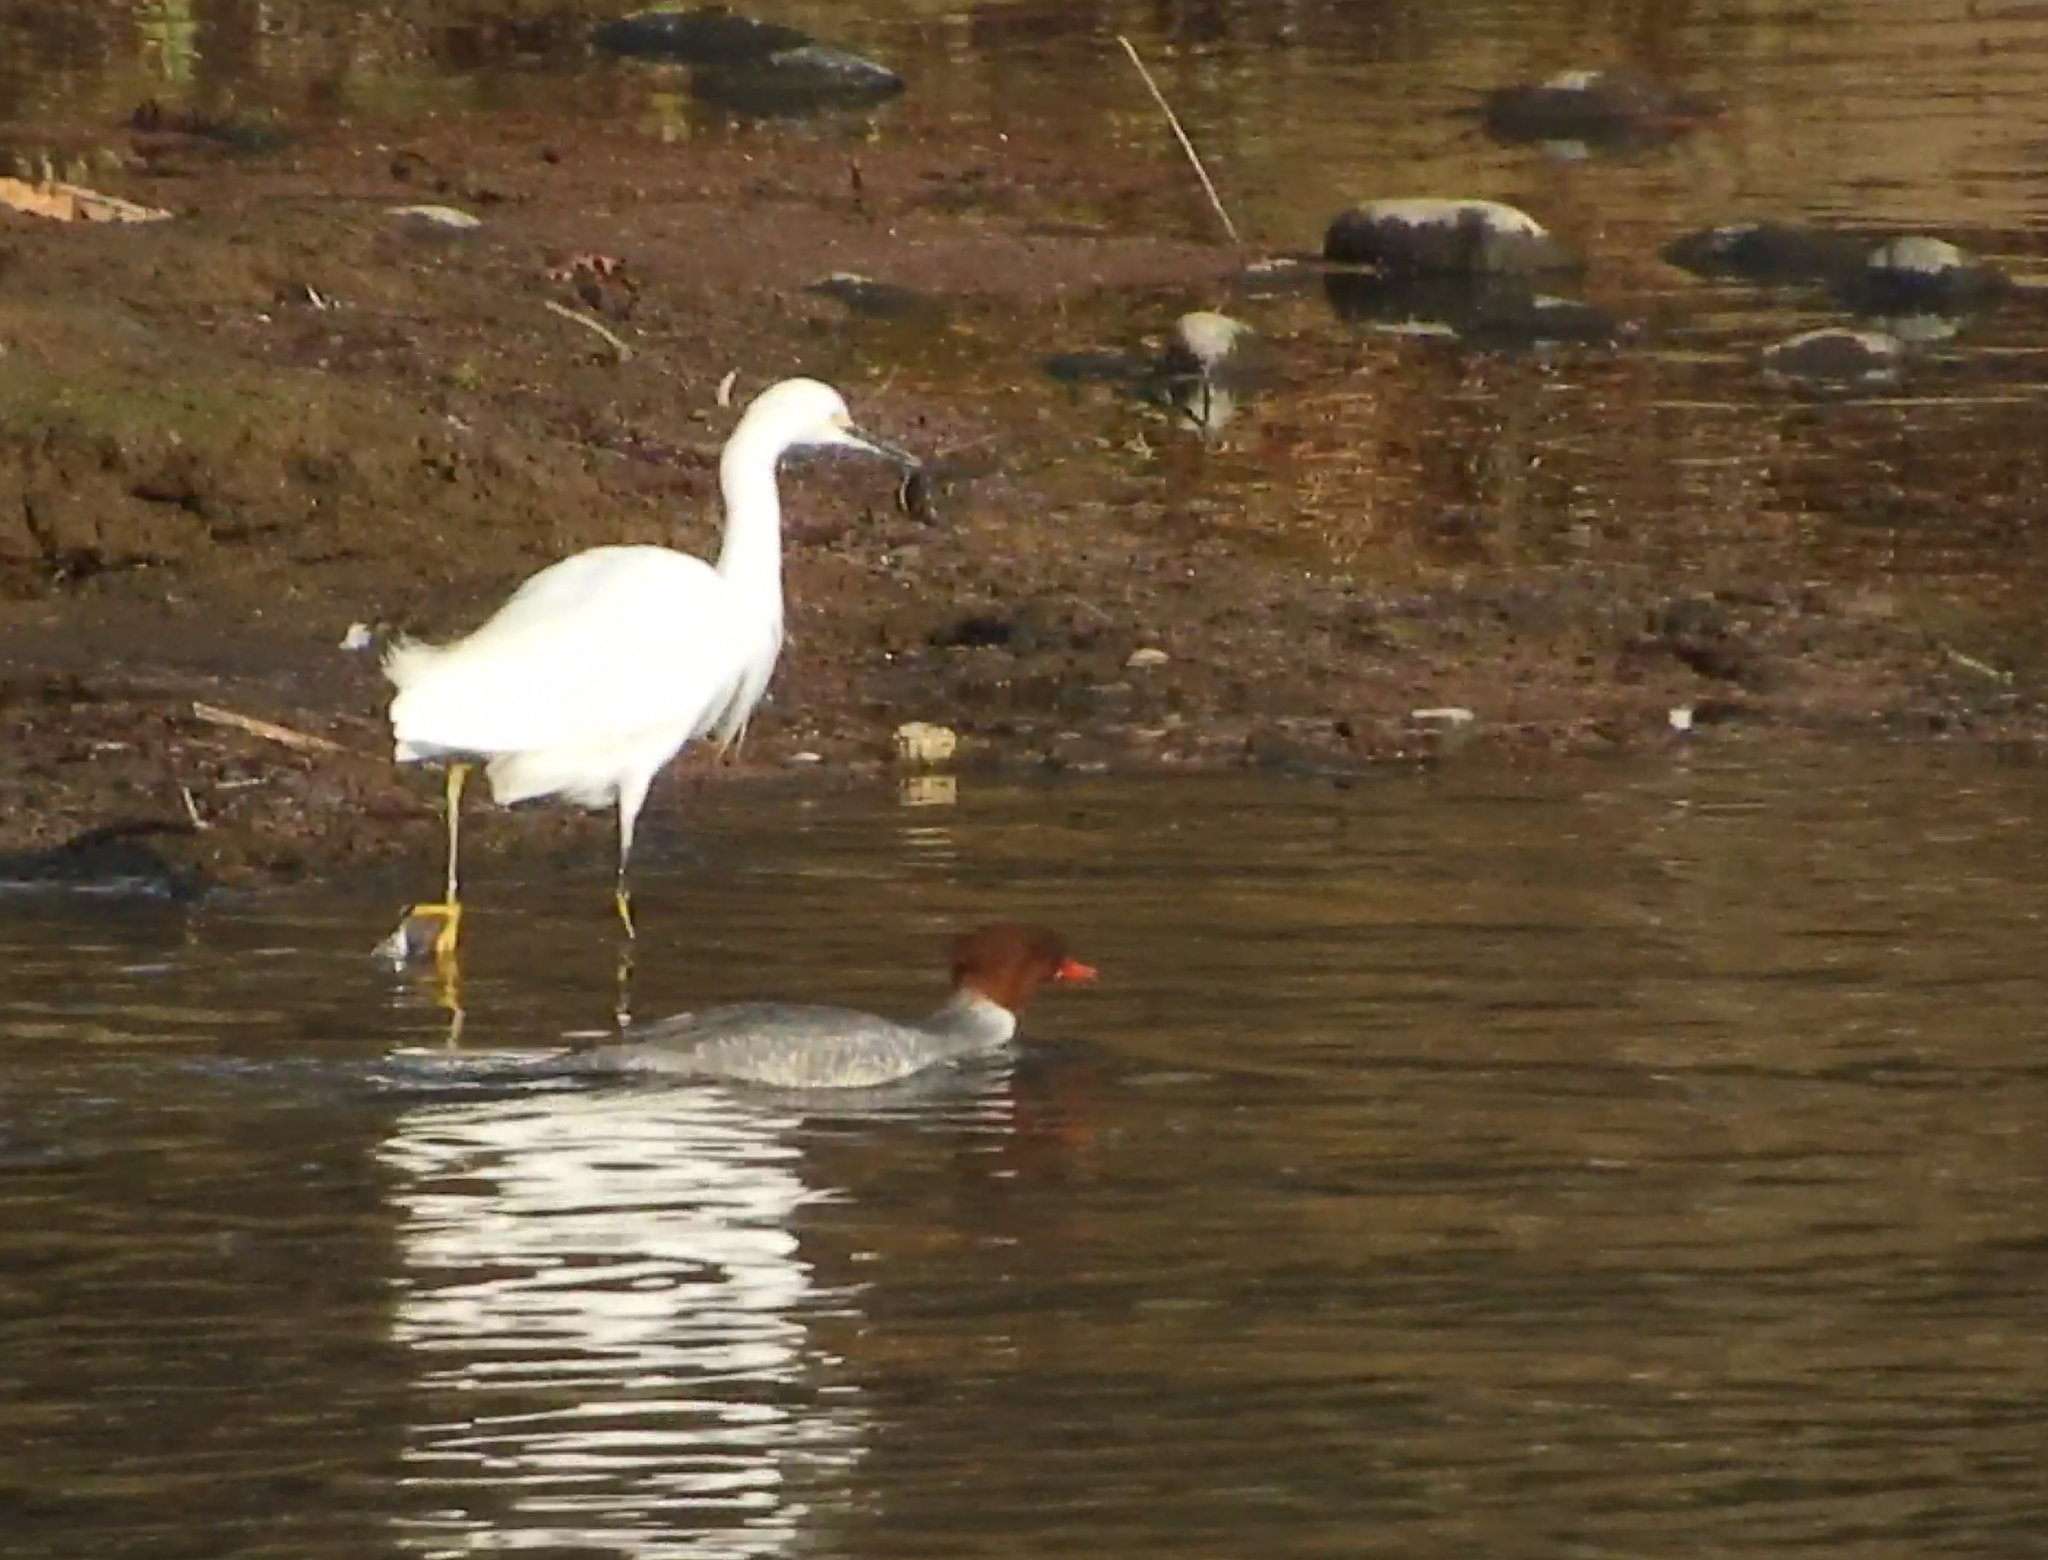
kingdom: Animalia
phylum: Chordata
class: Aves
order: Pelecaniformes
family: Ardeidae
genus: Egretta
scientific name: Egretta thula
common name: Snowy egret
